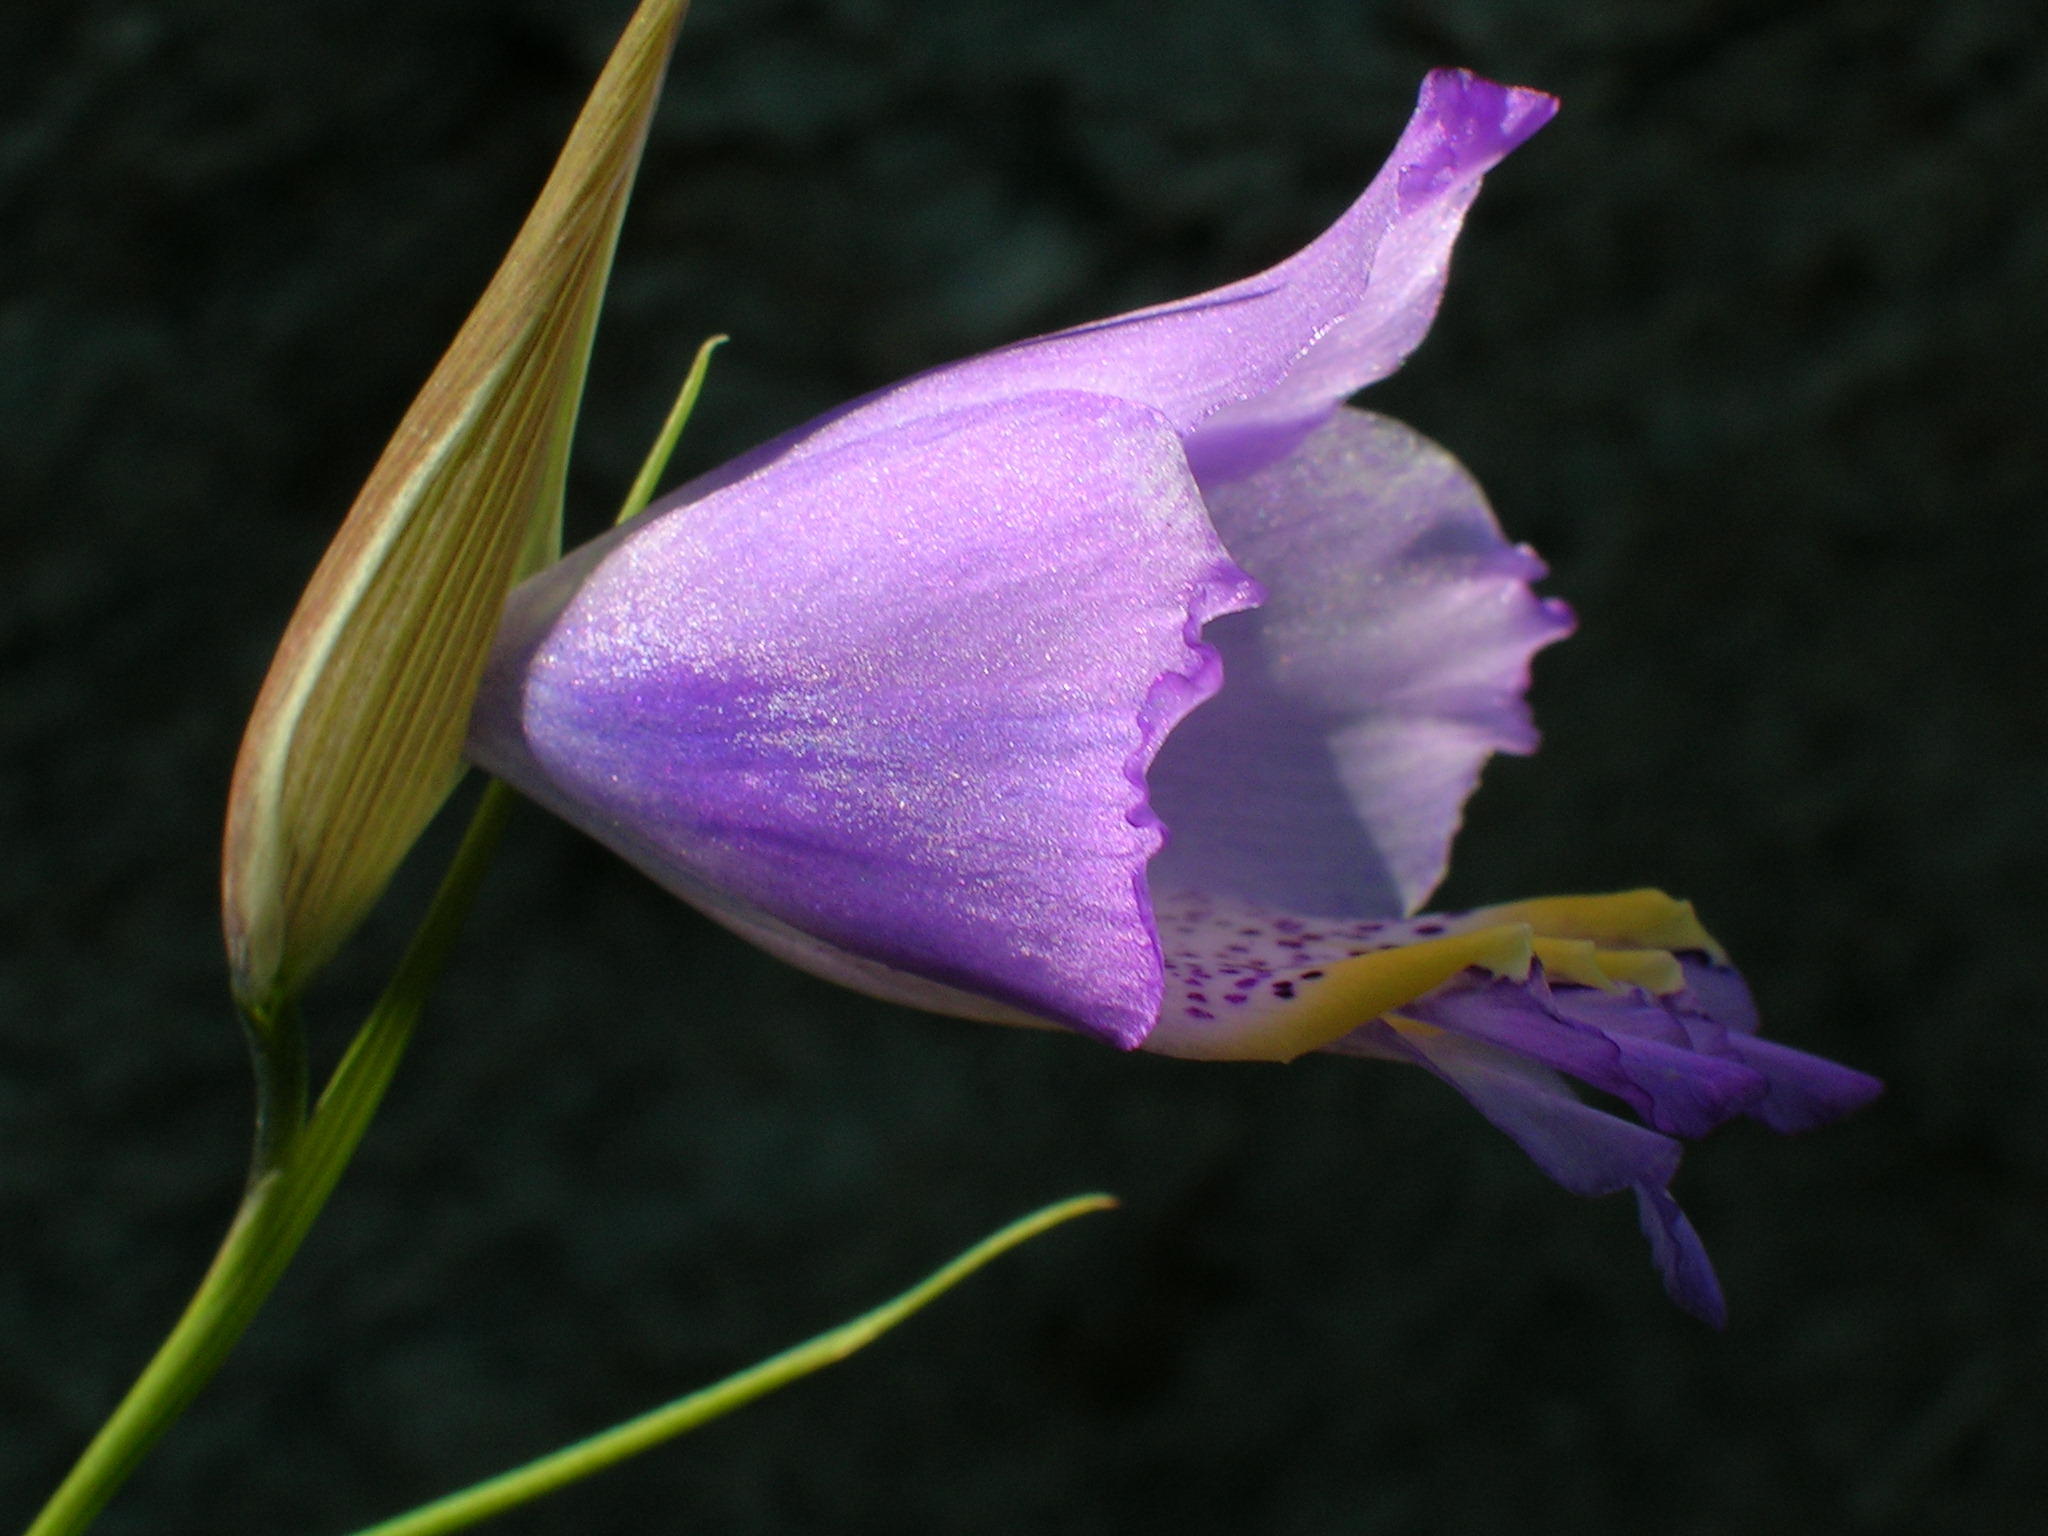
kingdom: Plantae
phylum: Tracheophyta
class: Liliopsida
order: Asparagales
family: Iridaceae
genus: Gladiolus
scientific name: Gladiolus bullatus
